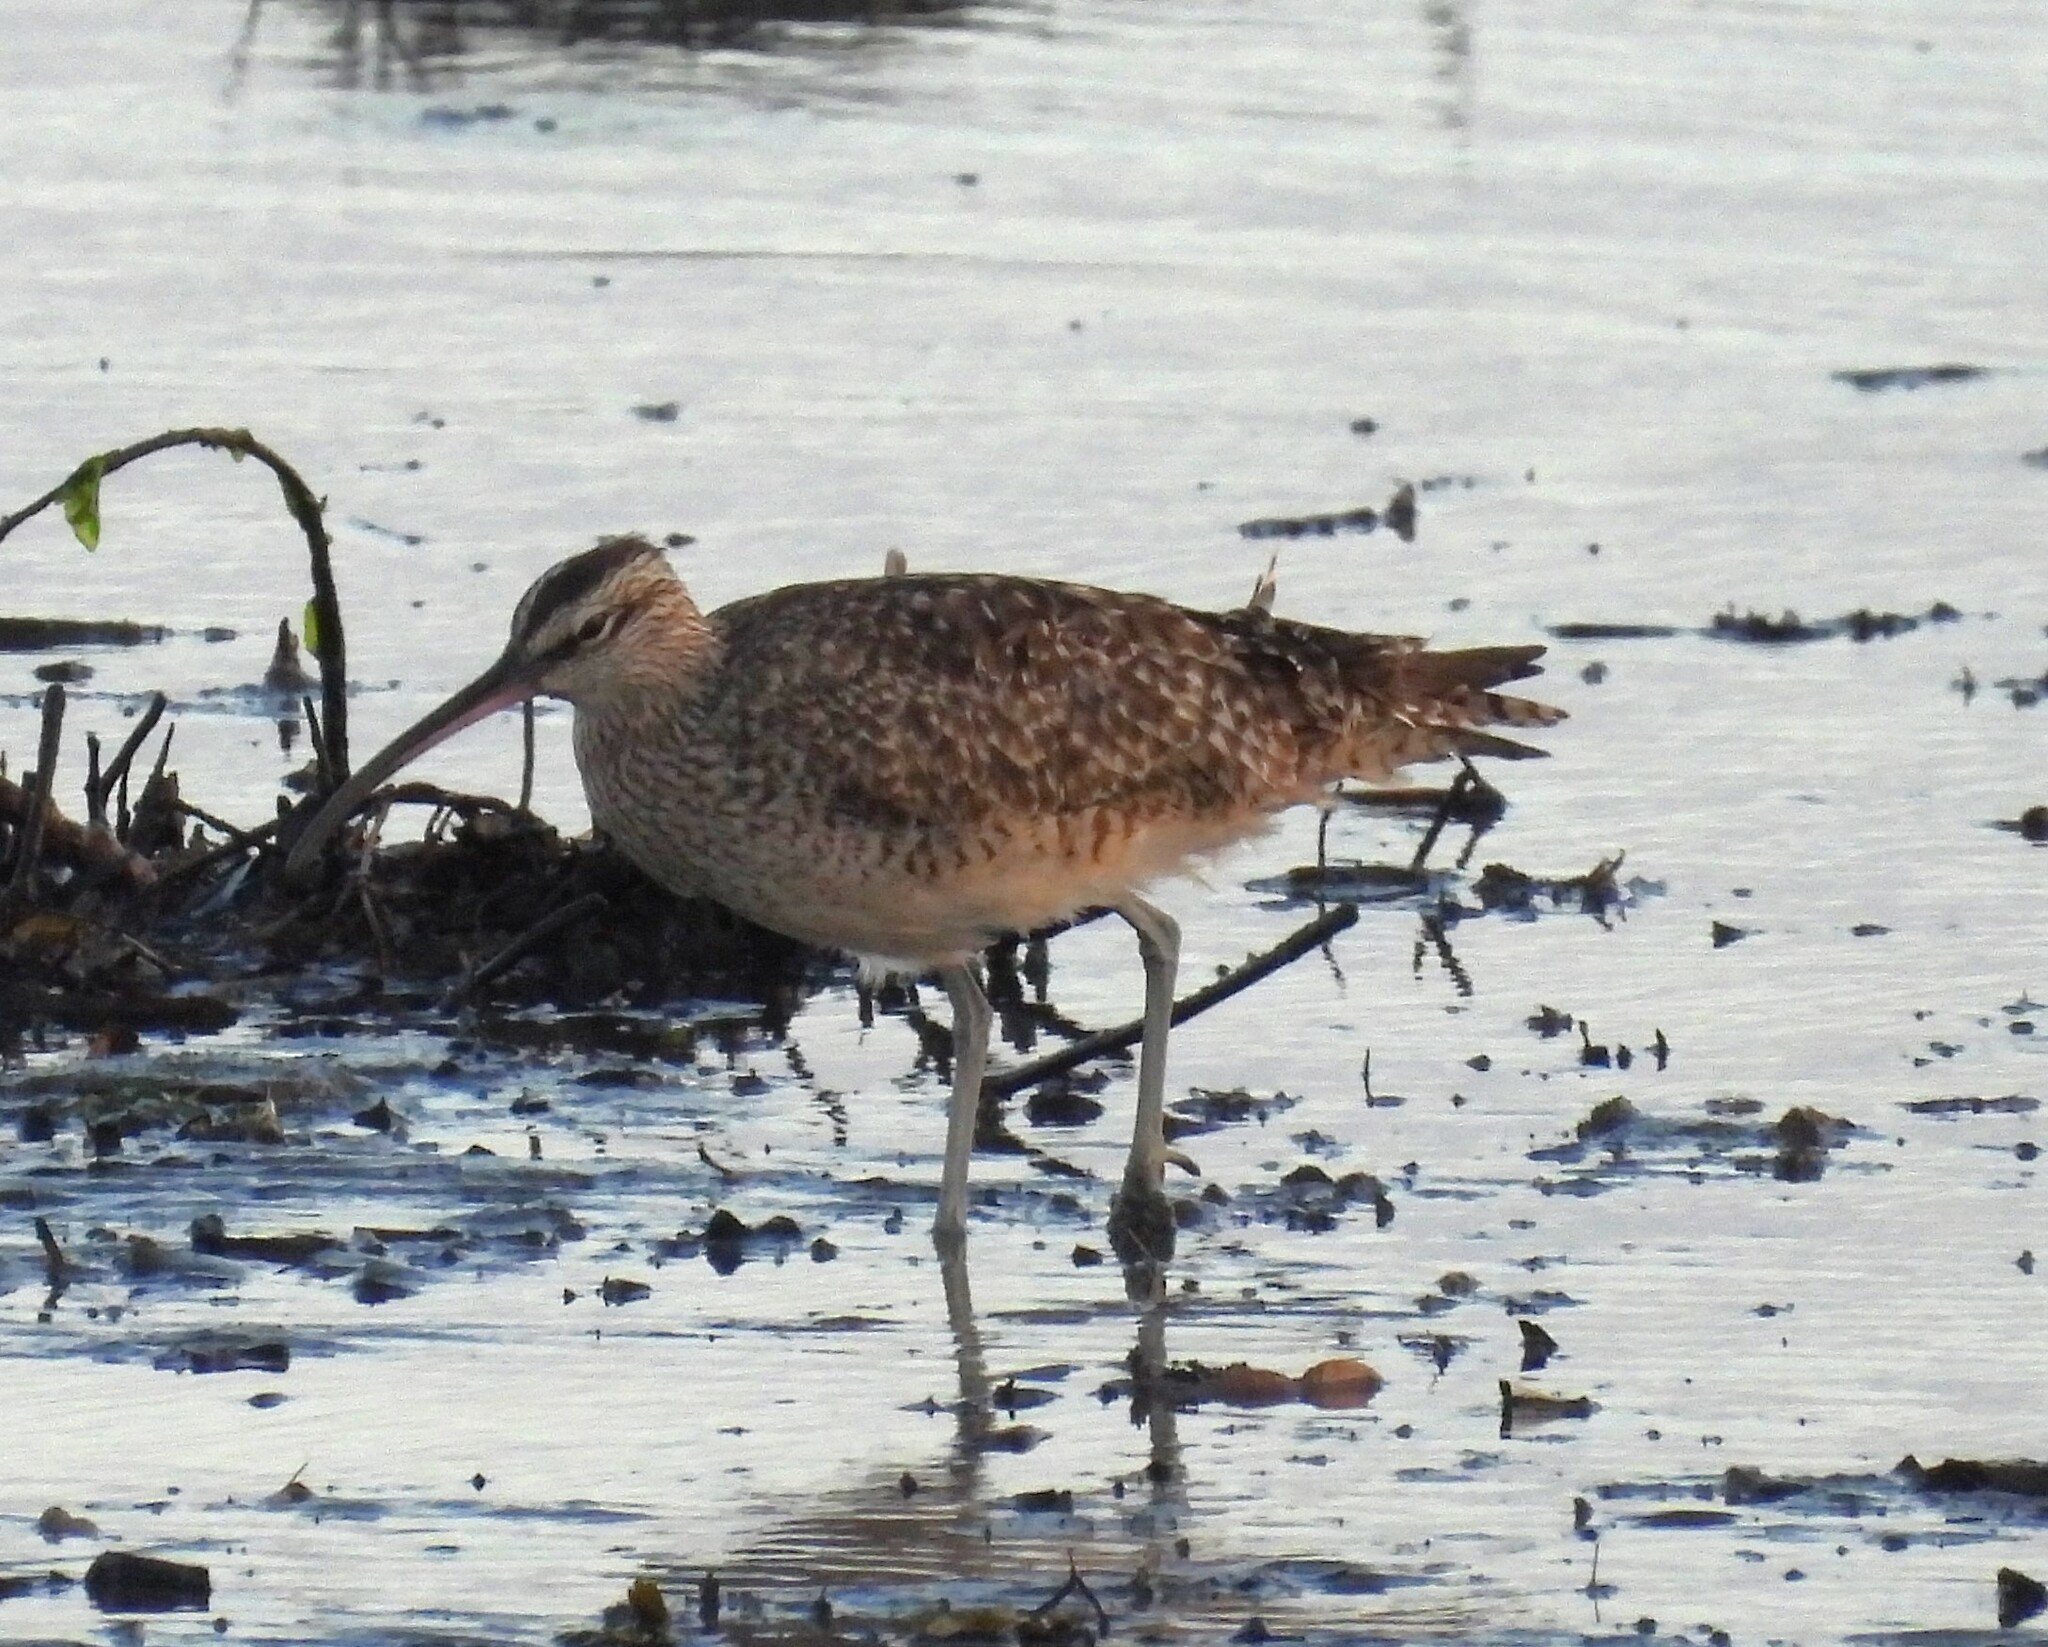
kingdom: Animalia
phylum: Chordata
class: Aves
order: Charadriiformes
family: Scolopacidae
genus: Numenius
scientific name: Numenius phaeopus
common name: Whimbrel
